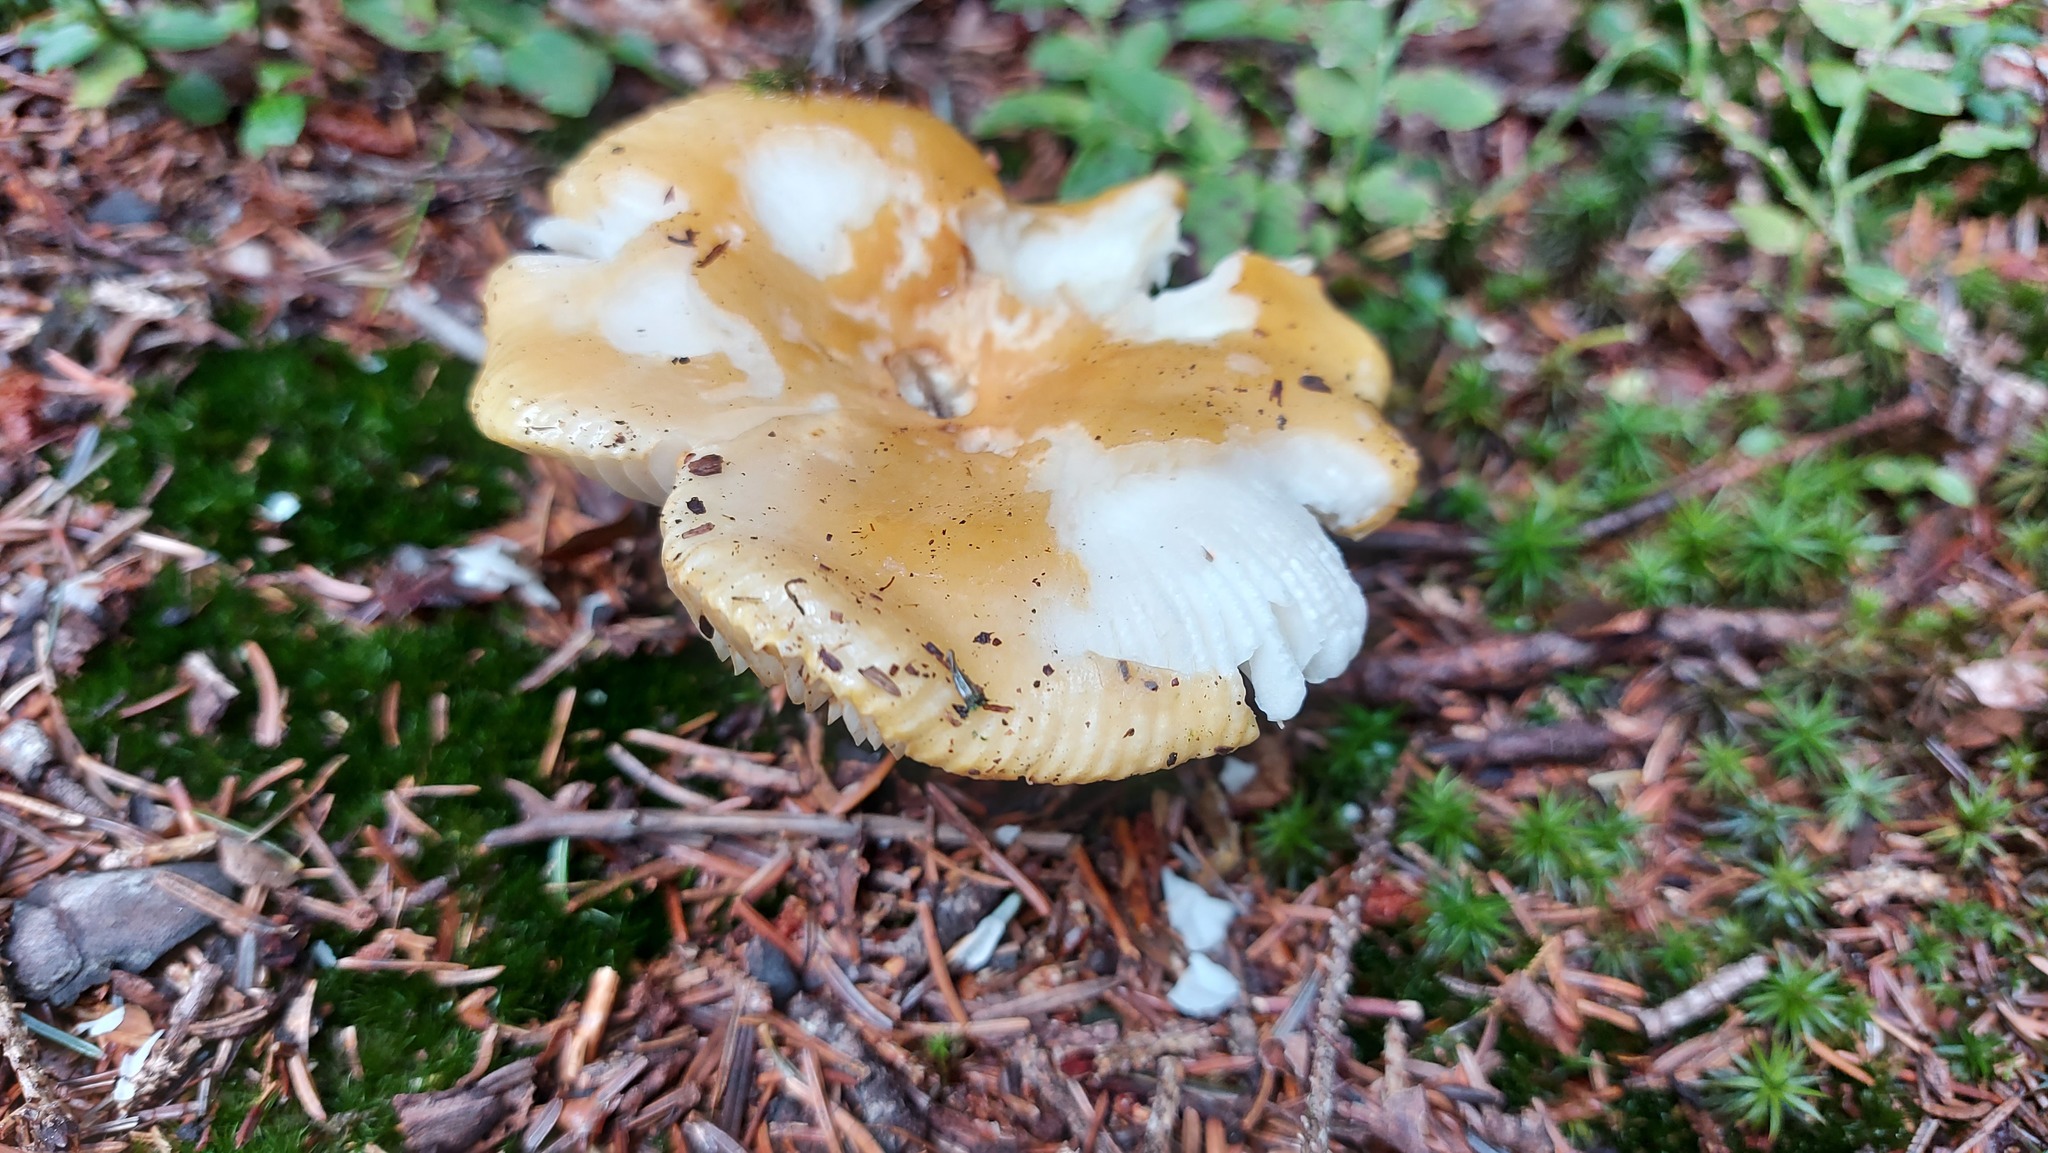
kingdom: Fungi
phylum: Basidiomycota
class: Agaricomycetes
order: Russulales
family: Russulaceae
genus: Russula
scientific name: Russula ochroleuca
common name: Common yellow russula
